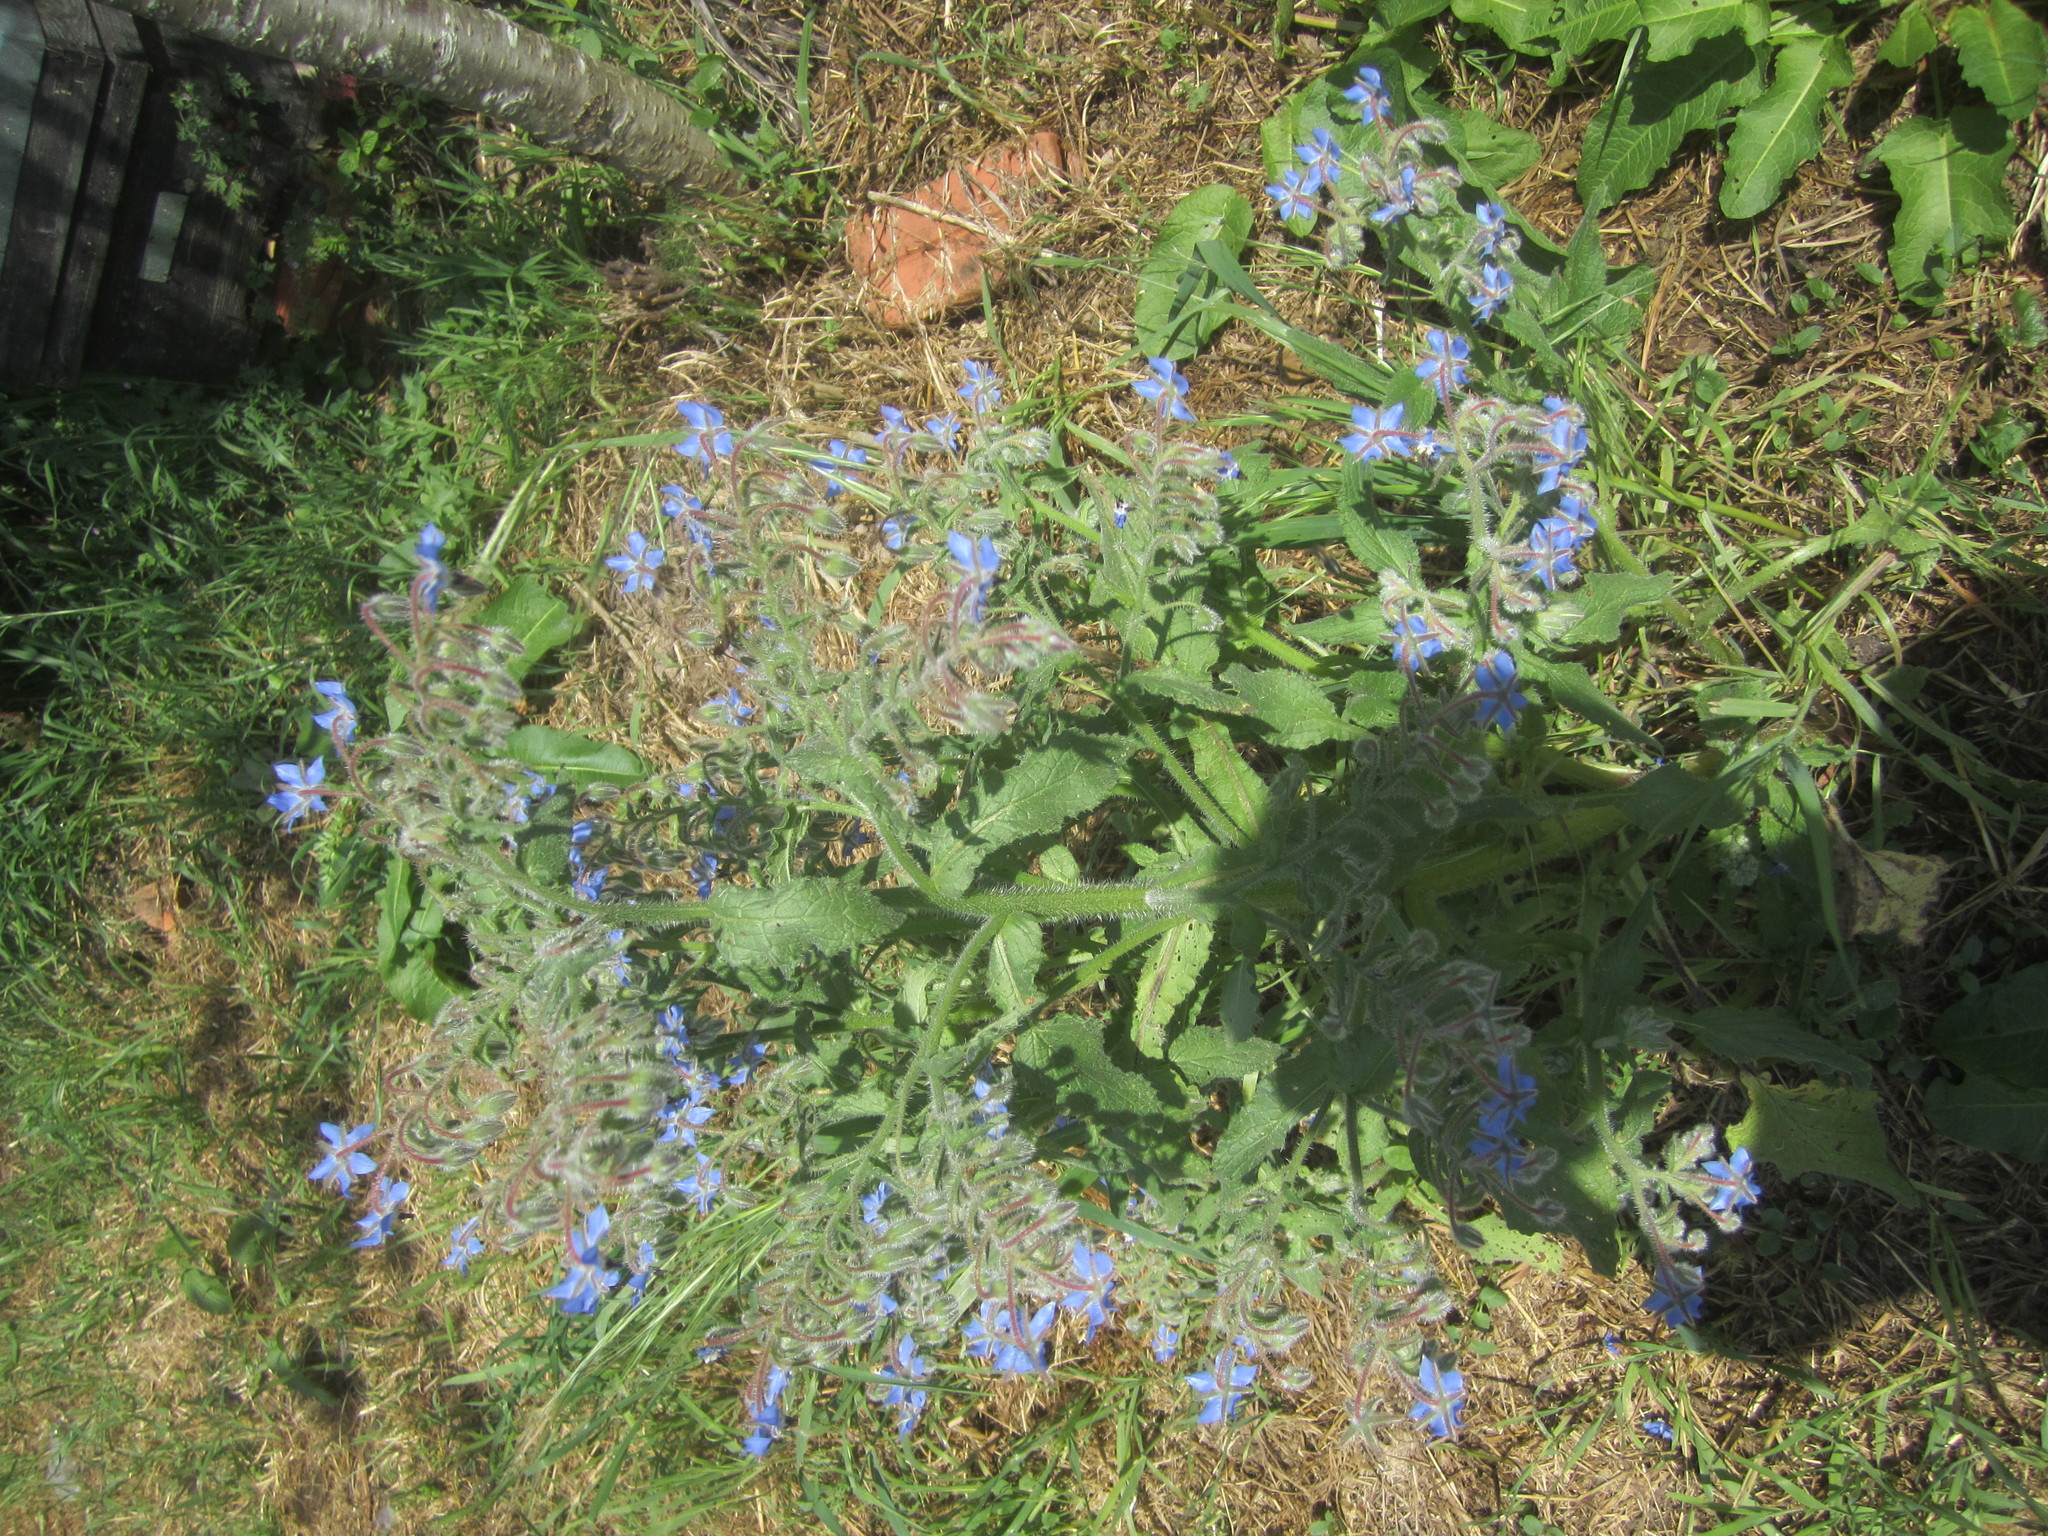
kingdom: Plantae
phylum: Tracheophyta
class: Magnoliopsida
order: Boraginales
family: Boraginaceae
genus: Borago
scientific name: Borago officinalis
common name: Borage
